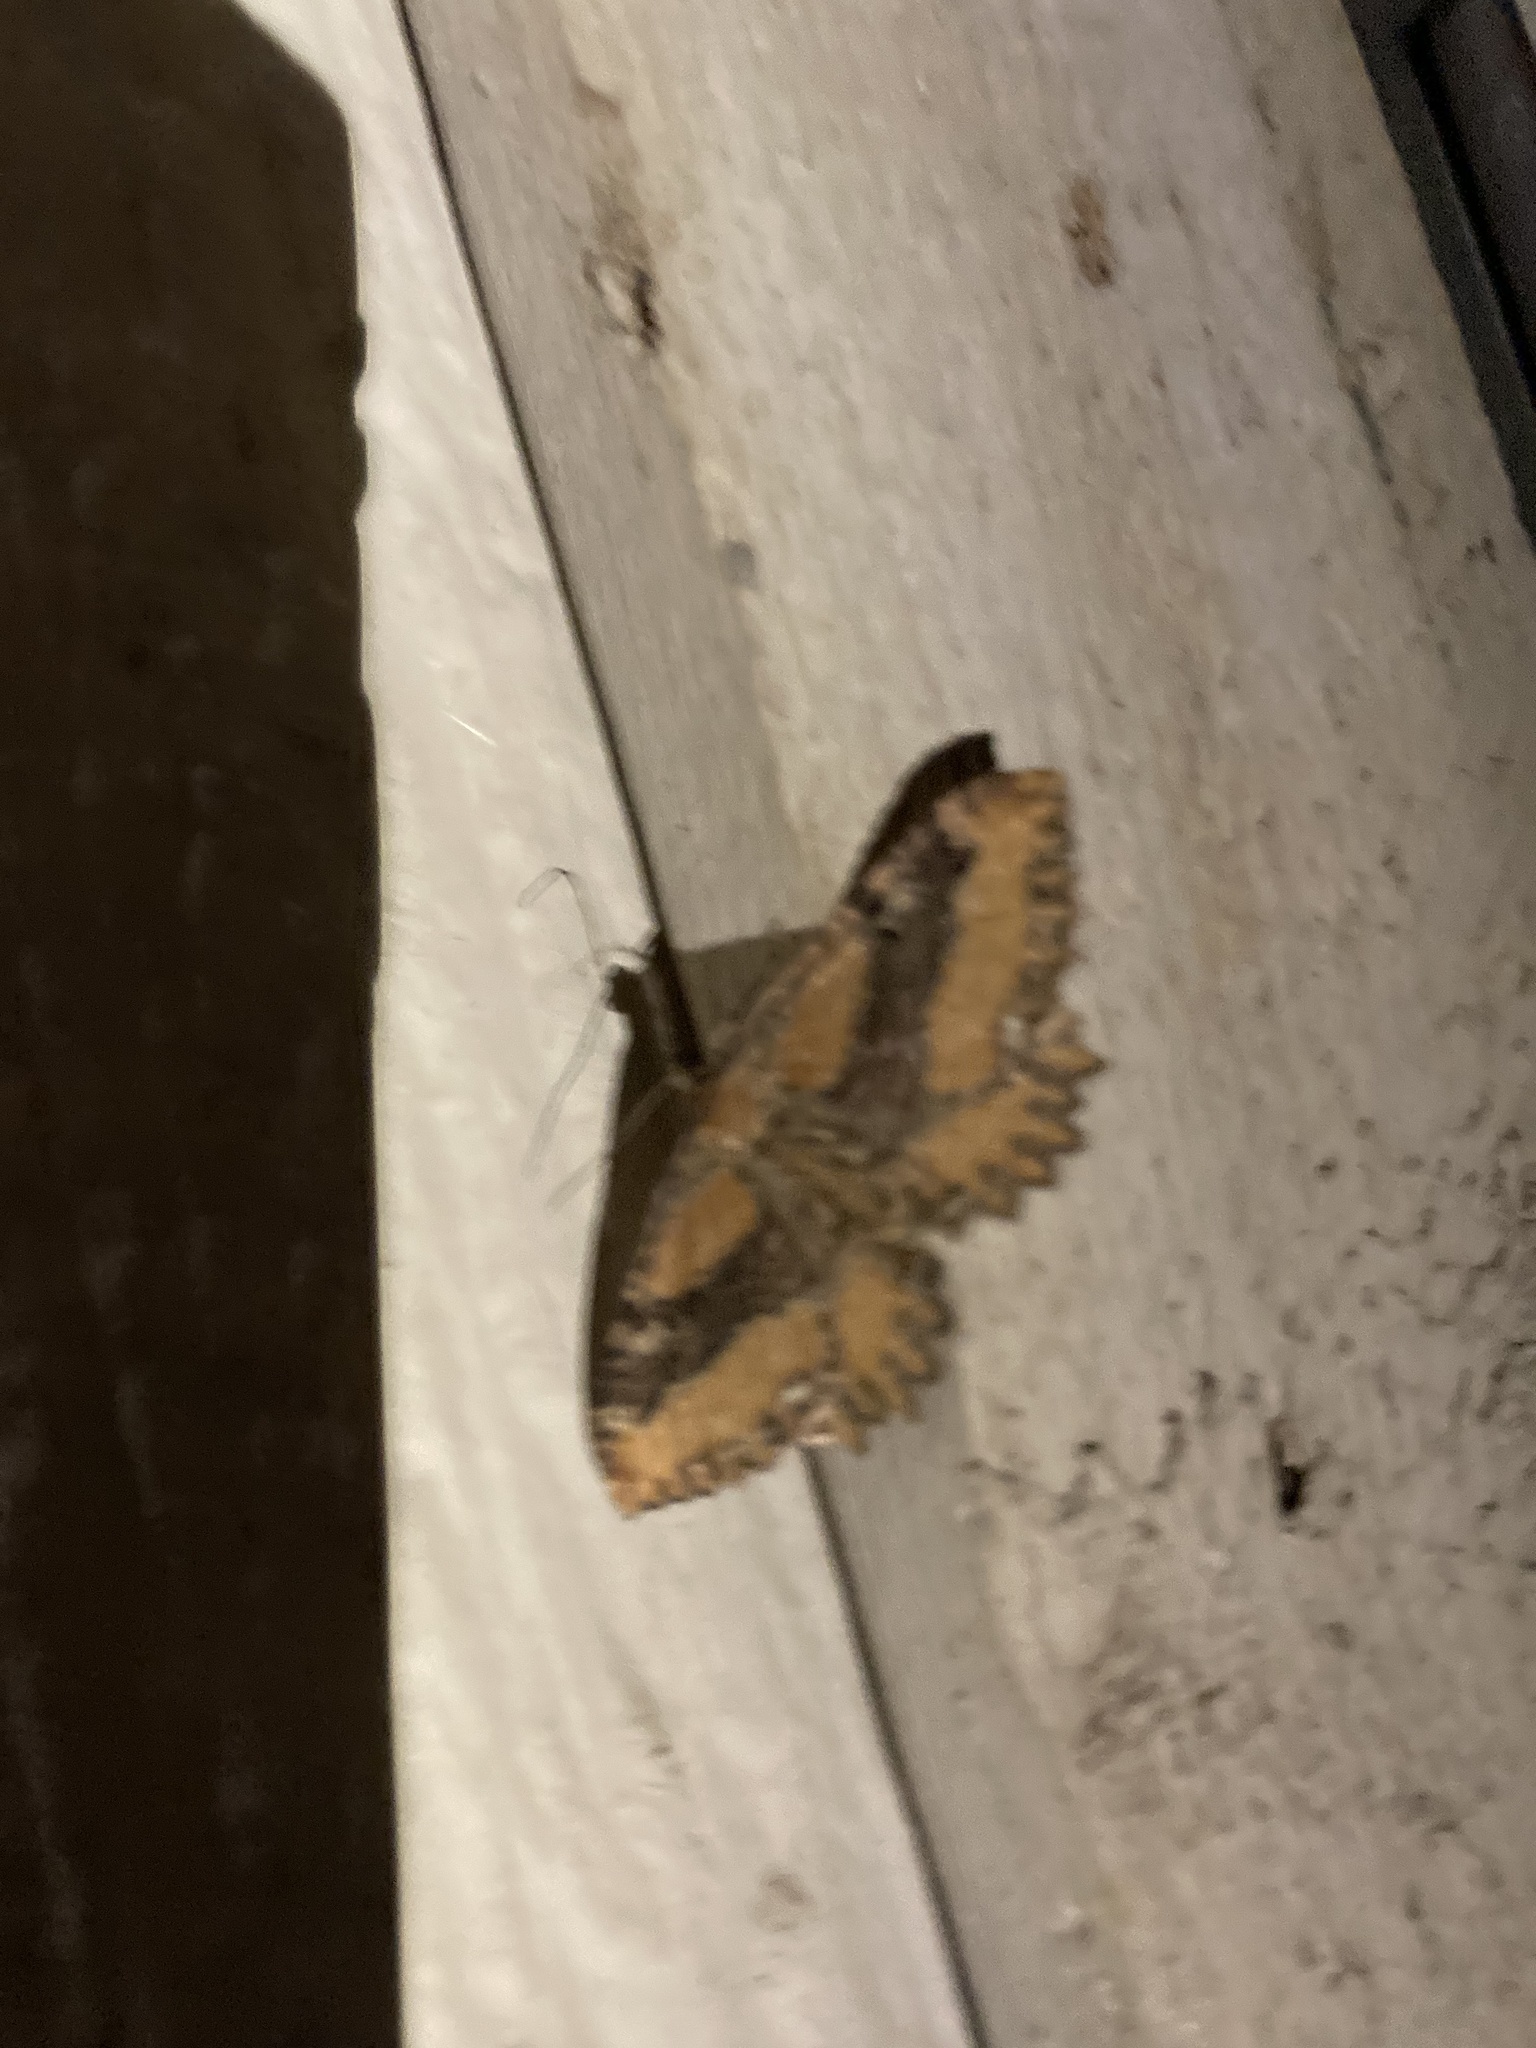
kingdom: Animalia
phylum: Arthropoda
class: Insecta
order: Lepidoptera
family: Geometridae
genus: Rheumaptera
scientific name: Rheumaptera
